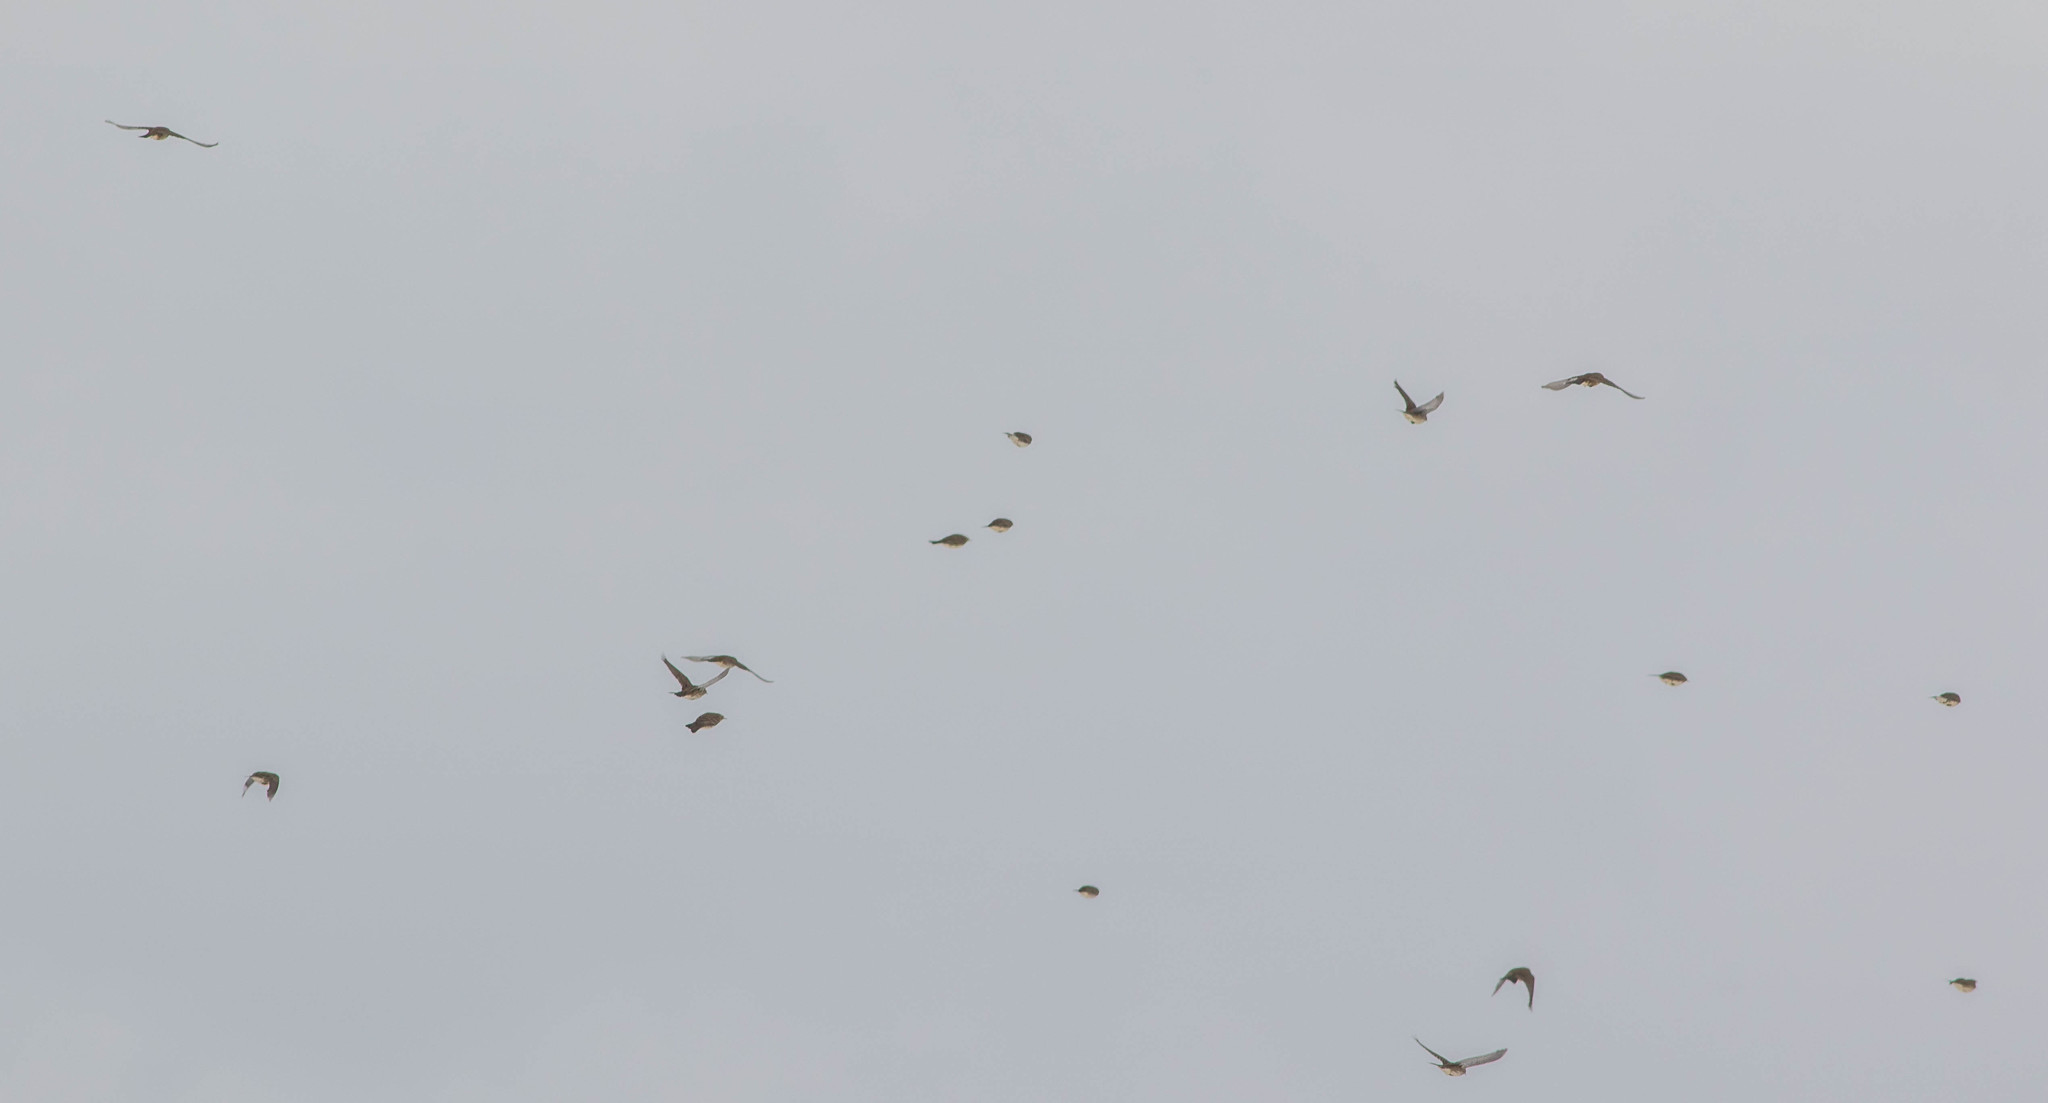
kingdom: Animalia
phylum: Chordata
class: Aves
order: Passeriformes
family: Motacillidae
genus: Anthus
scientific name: Anthus rubescens
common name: Buff-bellied pipit
